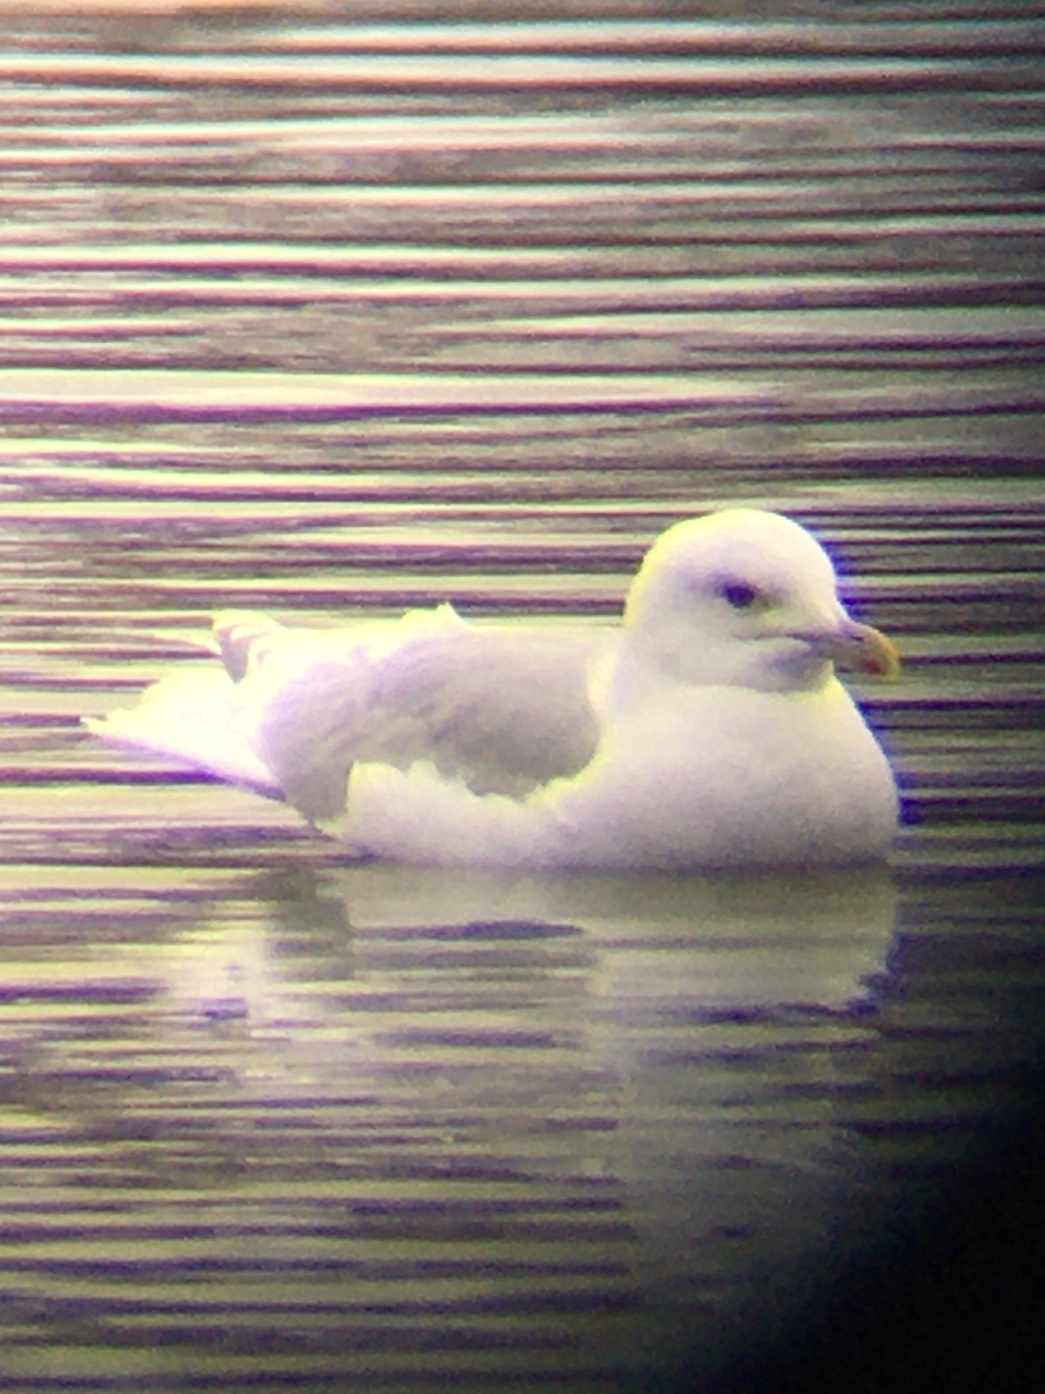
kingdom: Animalia
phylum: Chordata
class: Aves
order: Charadriiformes
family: Laridae
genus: Larus
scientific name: Larus glaucoides
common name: Iceland gull
